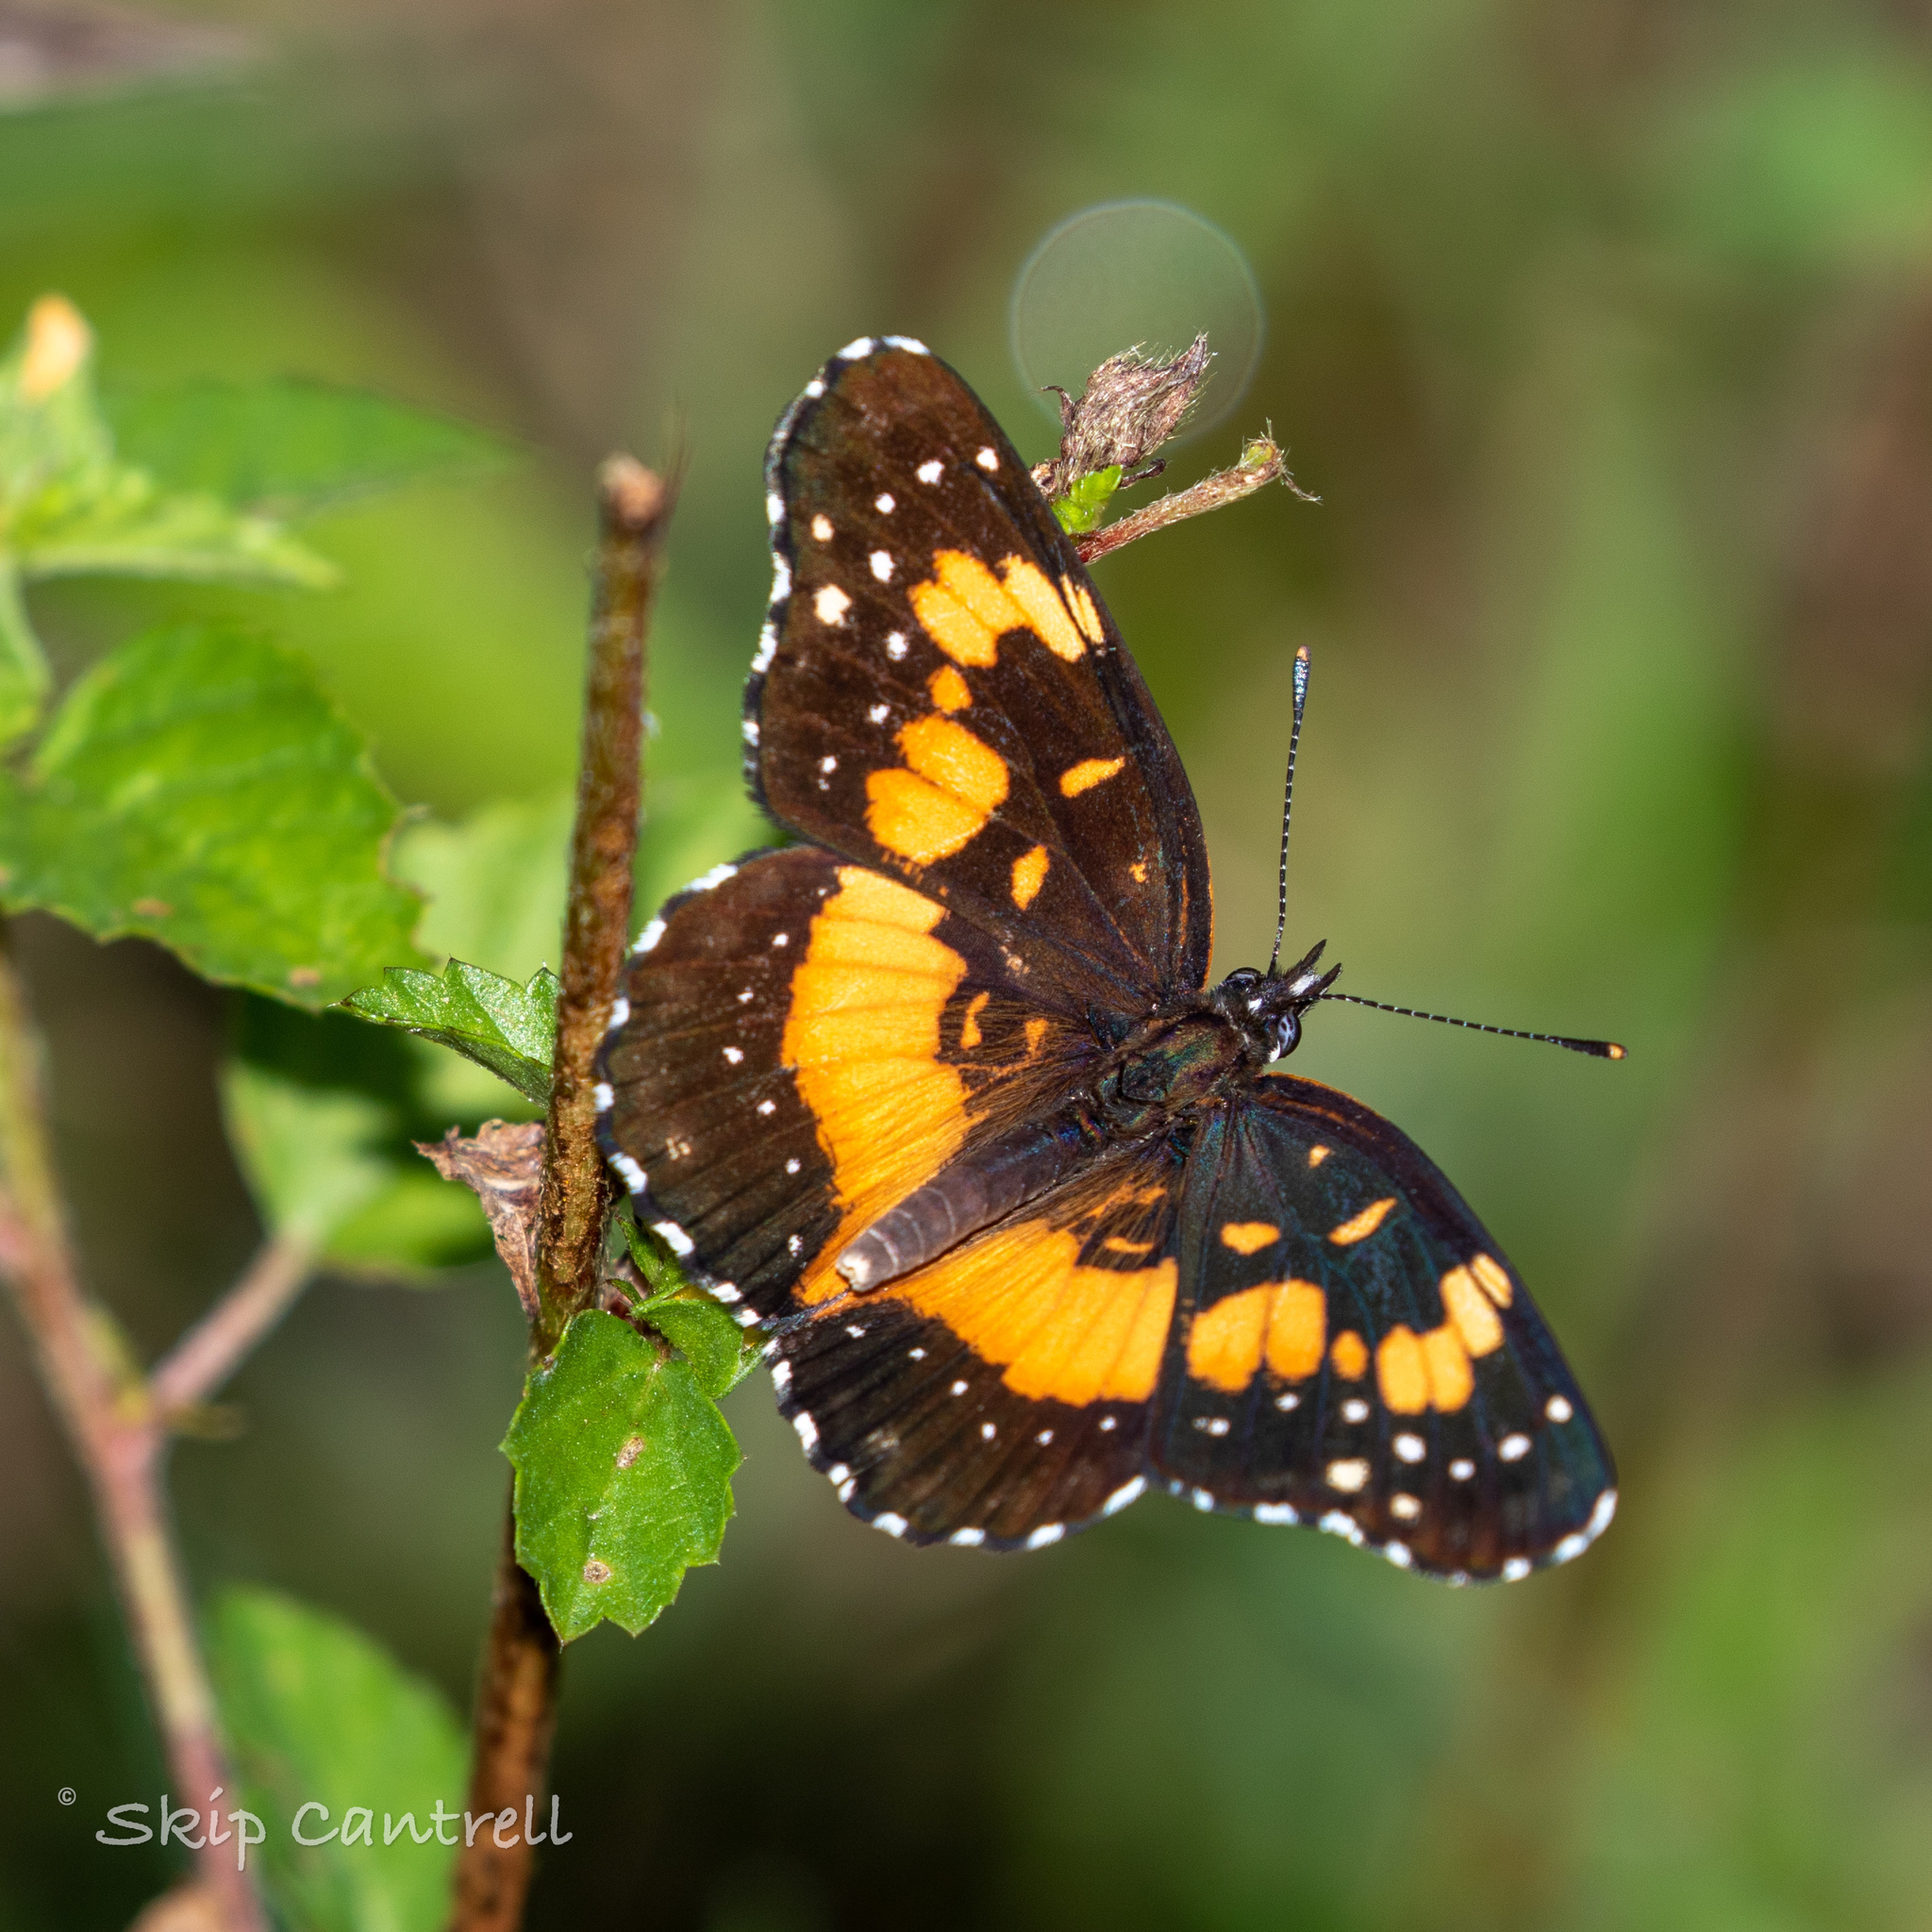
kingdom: Animalia
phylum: Arthropoda
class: Insecta
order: Lepidoptera
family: Nymphalidae
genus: Chlosyne
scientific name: Chlosyne lacinia
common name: Bordered patch
